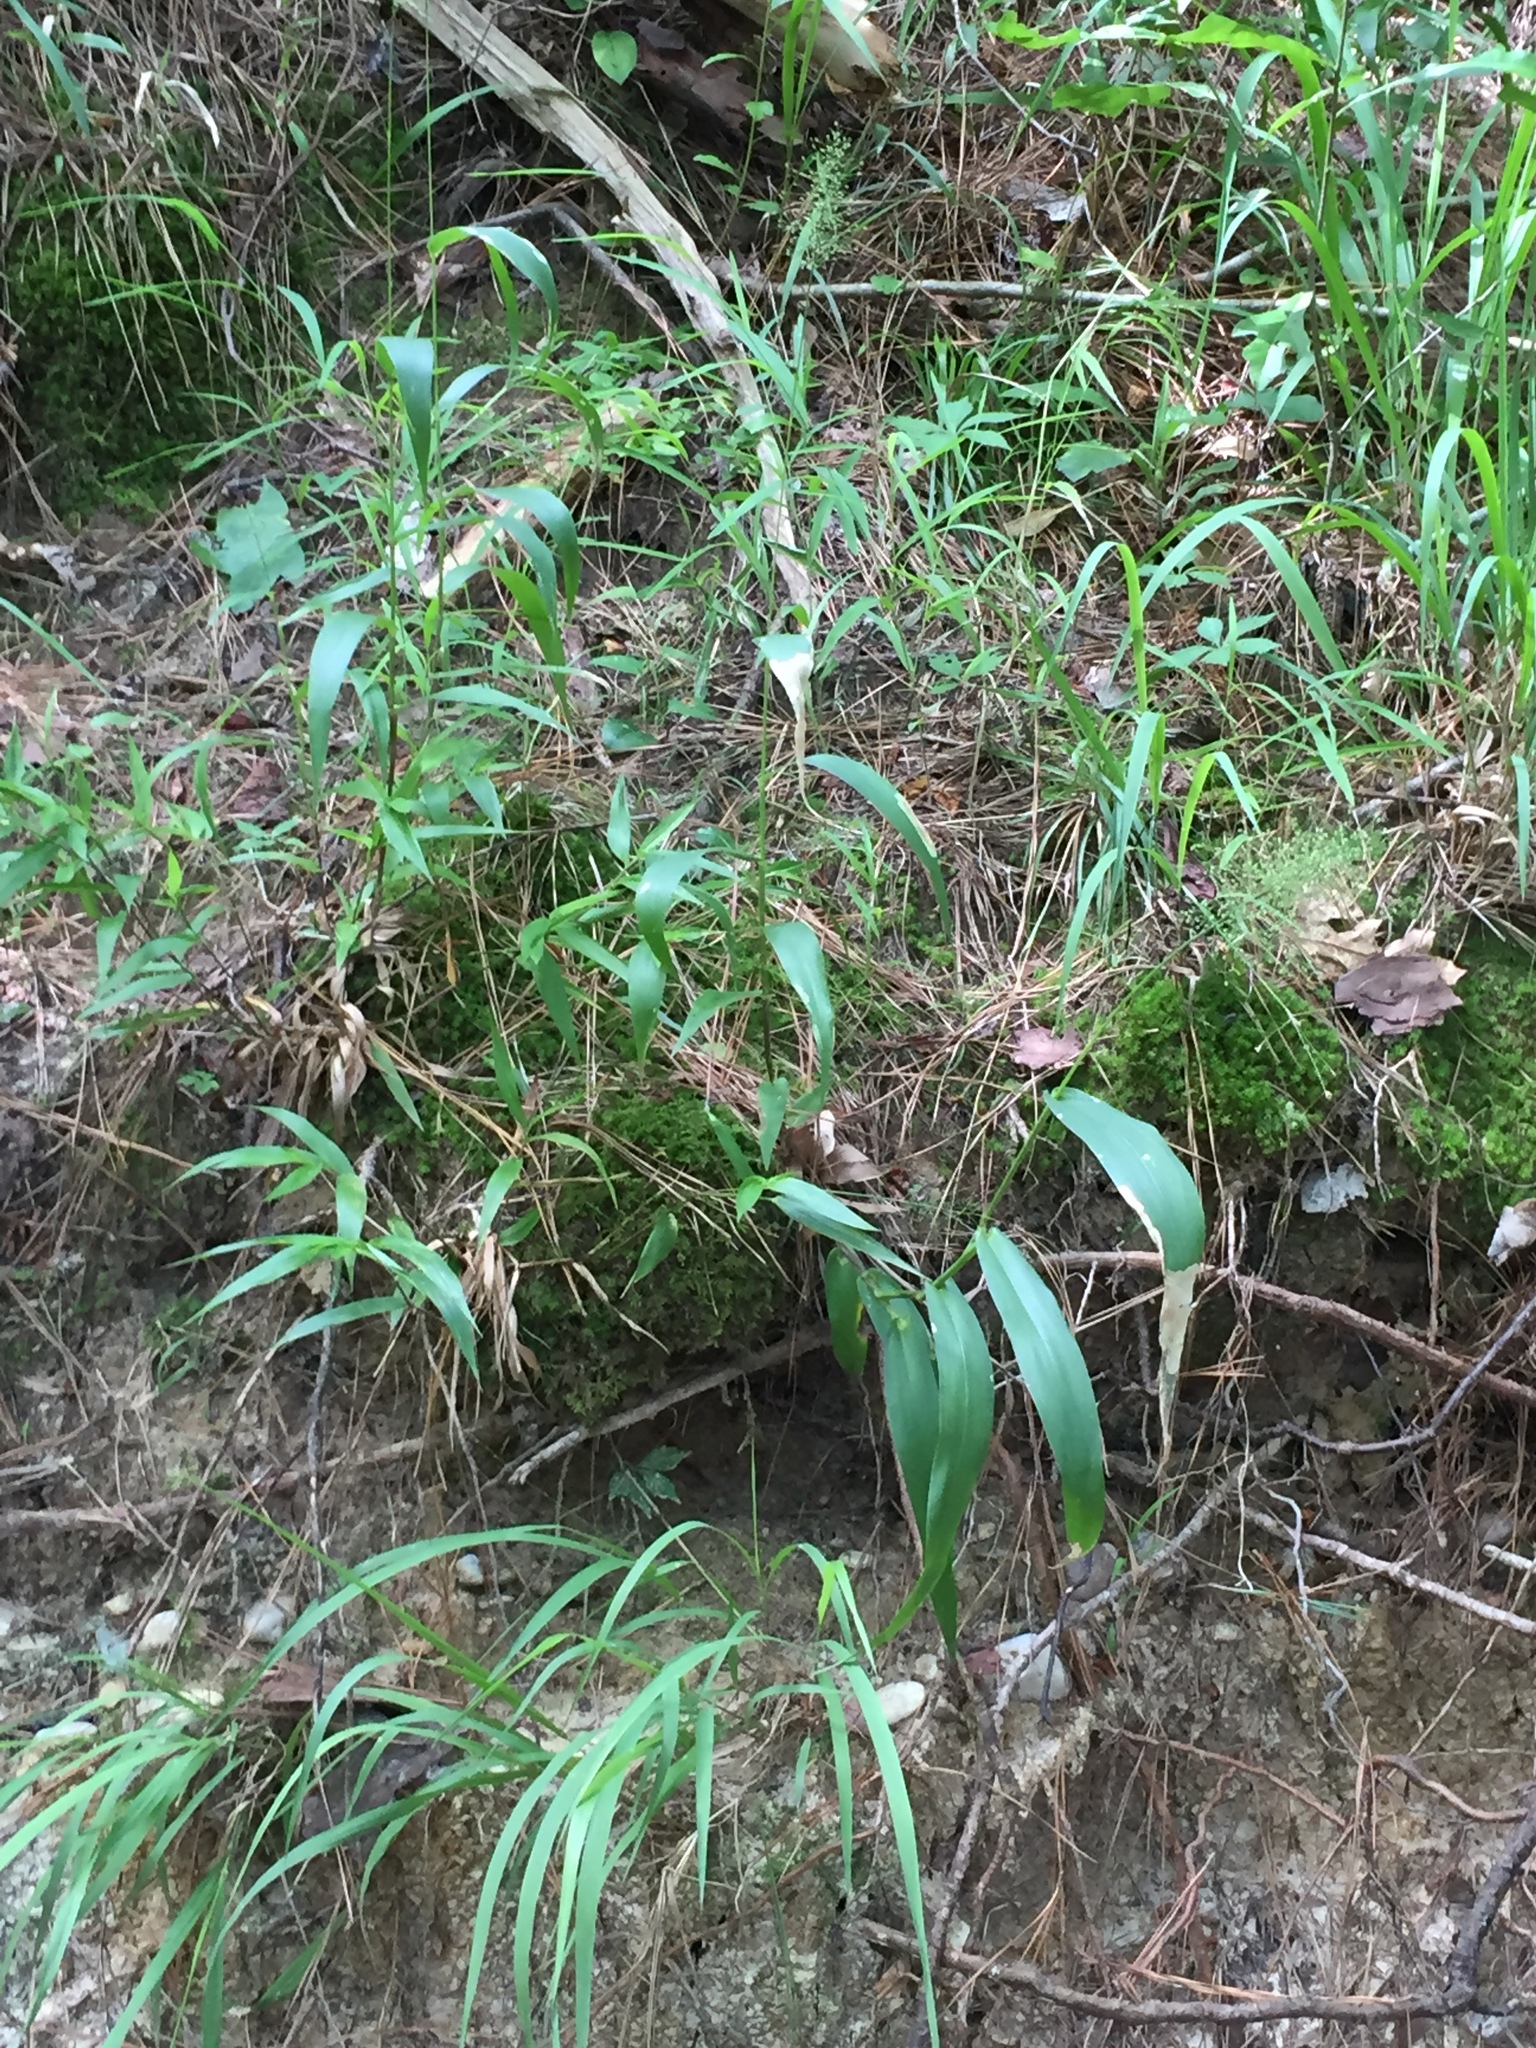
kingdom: Plantae
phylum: Tracheophyta
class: Liliopsida
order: Poales
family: Poaceae
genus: Dichanthelium
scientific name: Dichanthelium polyanthes
